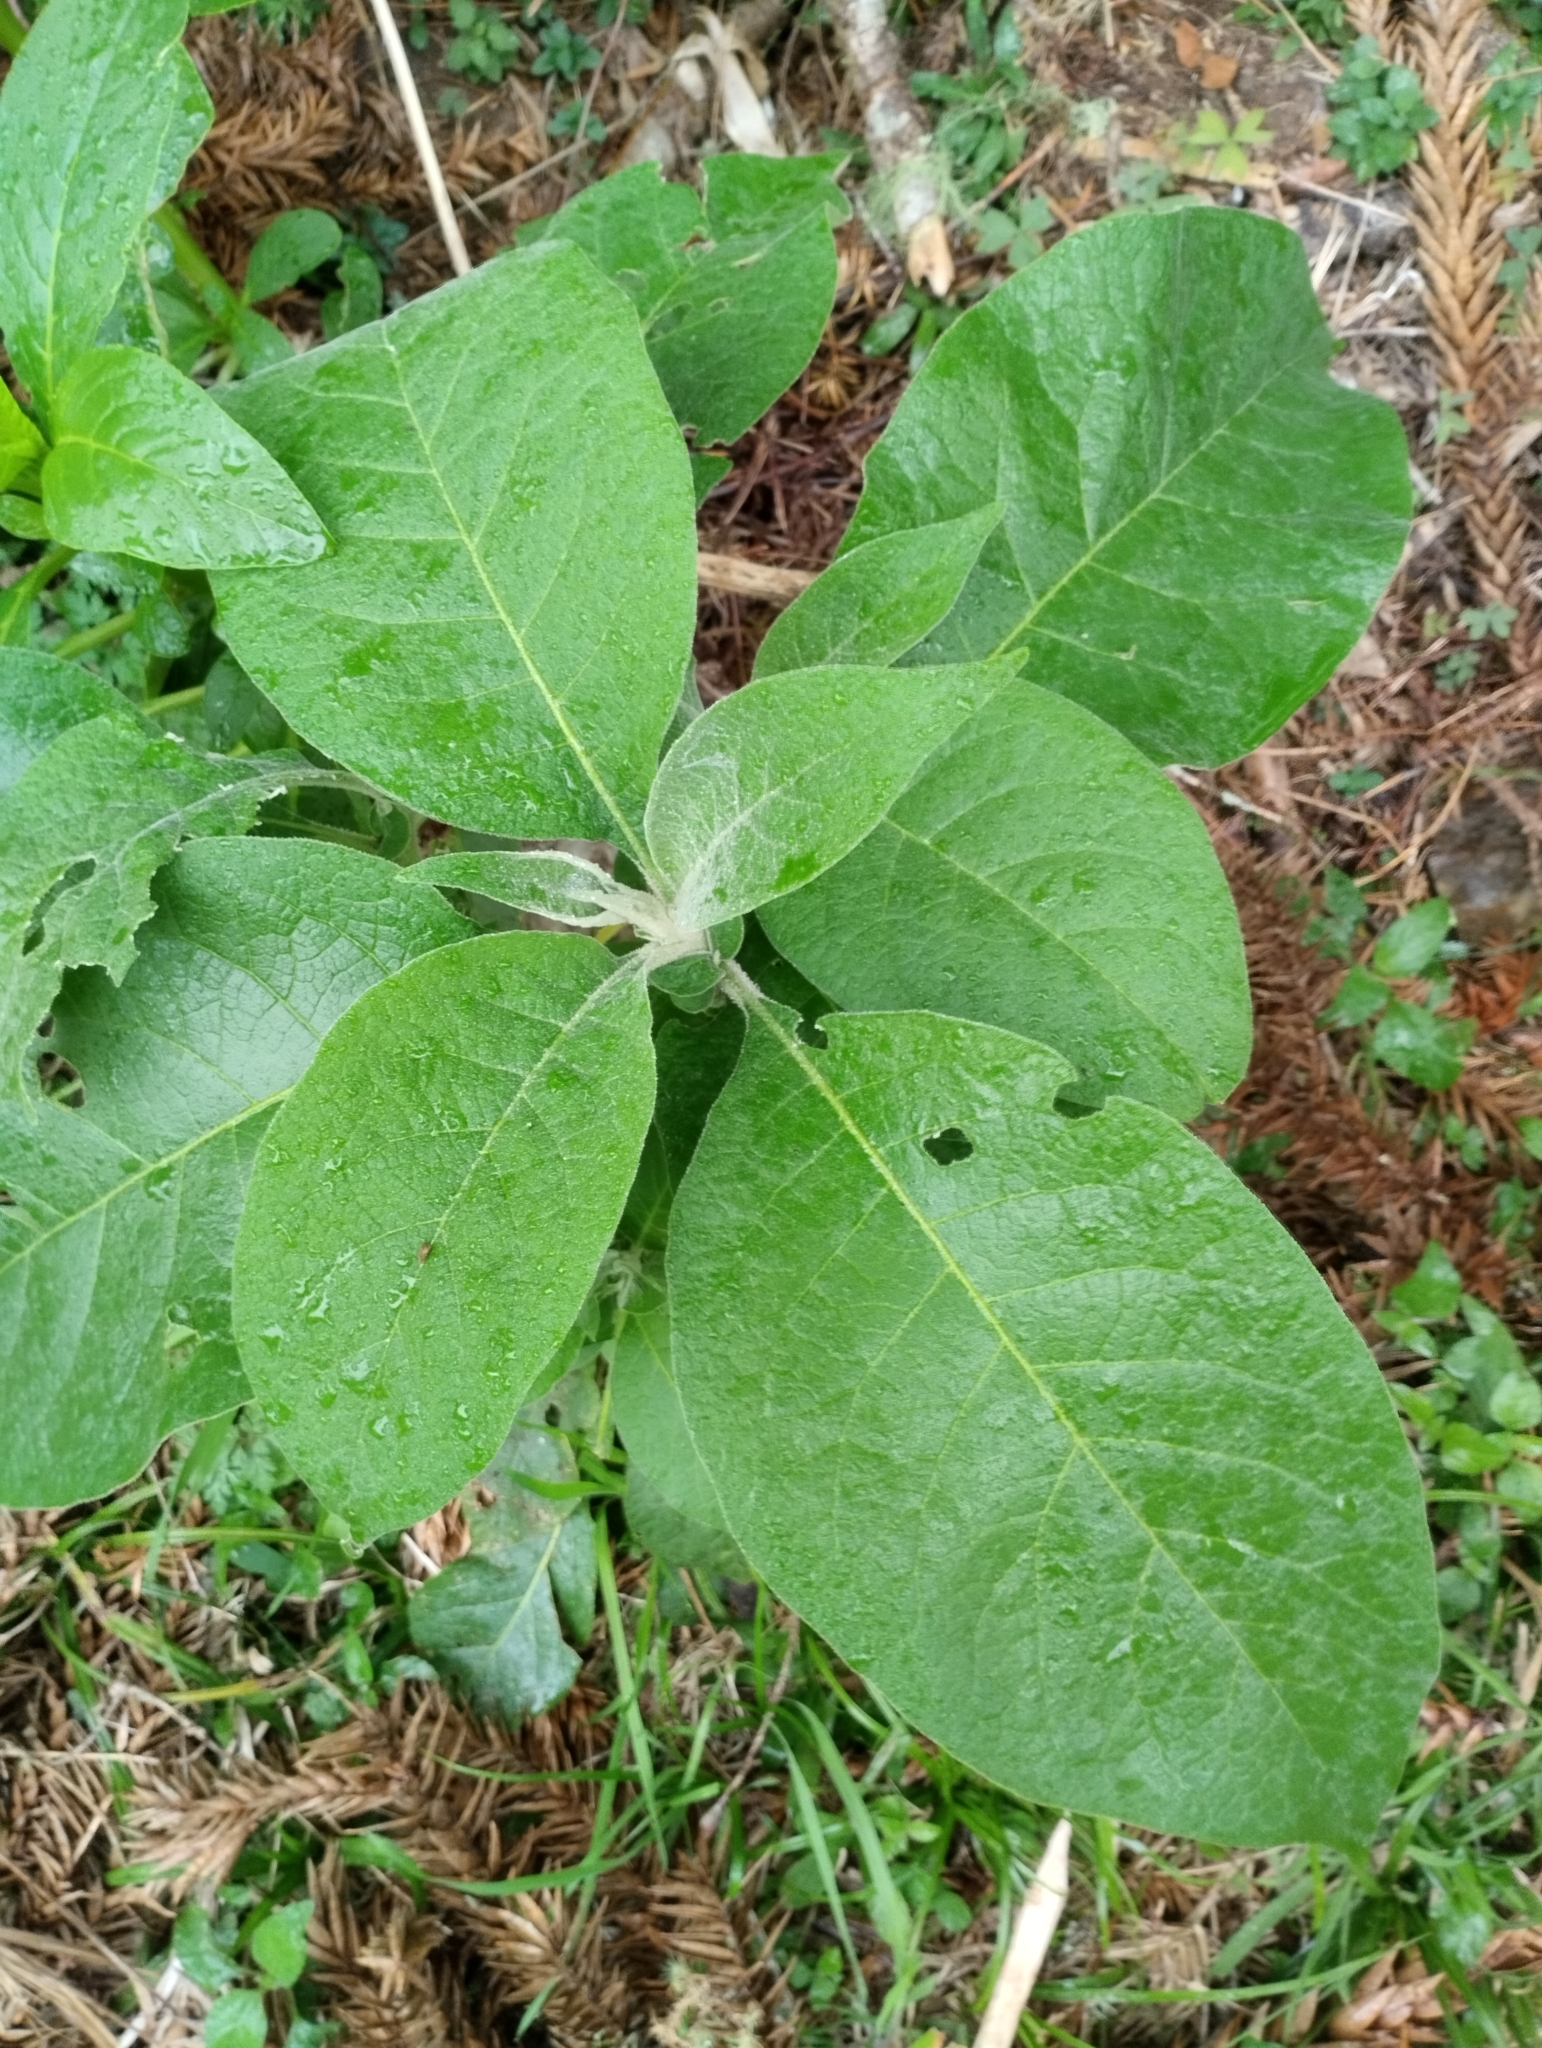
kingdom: Plantae
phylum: Tracheophyta
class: Magnoliopsida
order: Solanales
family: Solanaceae
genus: Solanum
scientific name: Solanum mauritianum
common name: Earleaf nightshade
